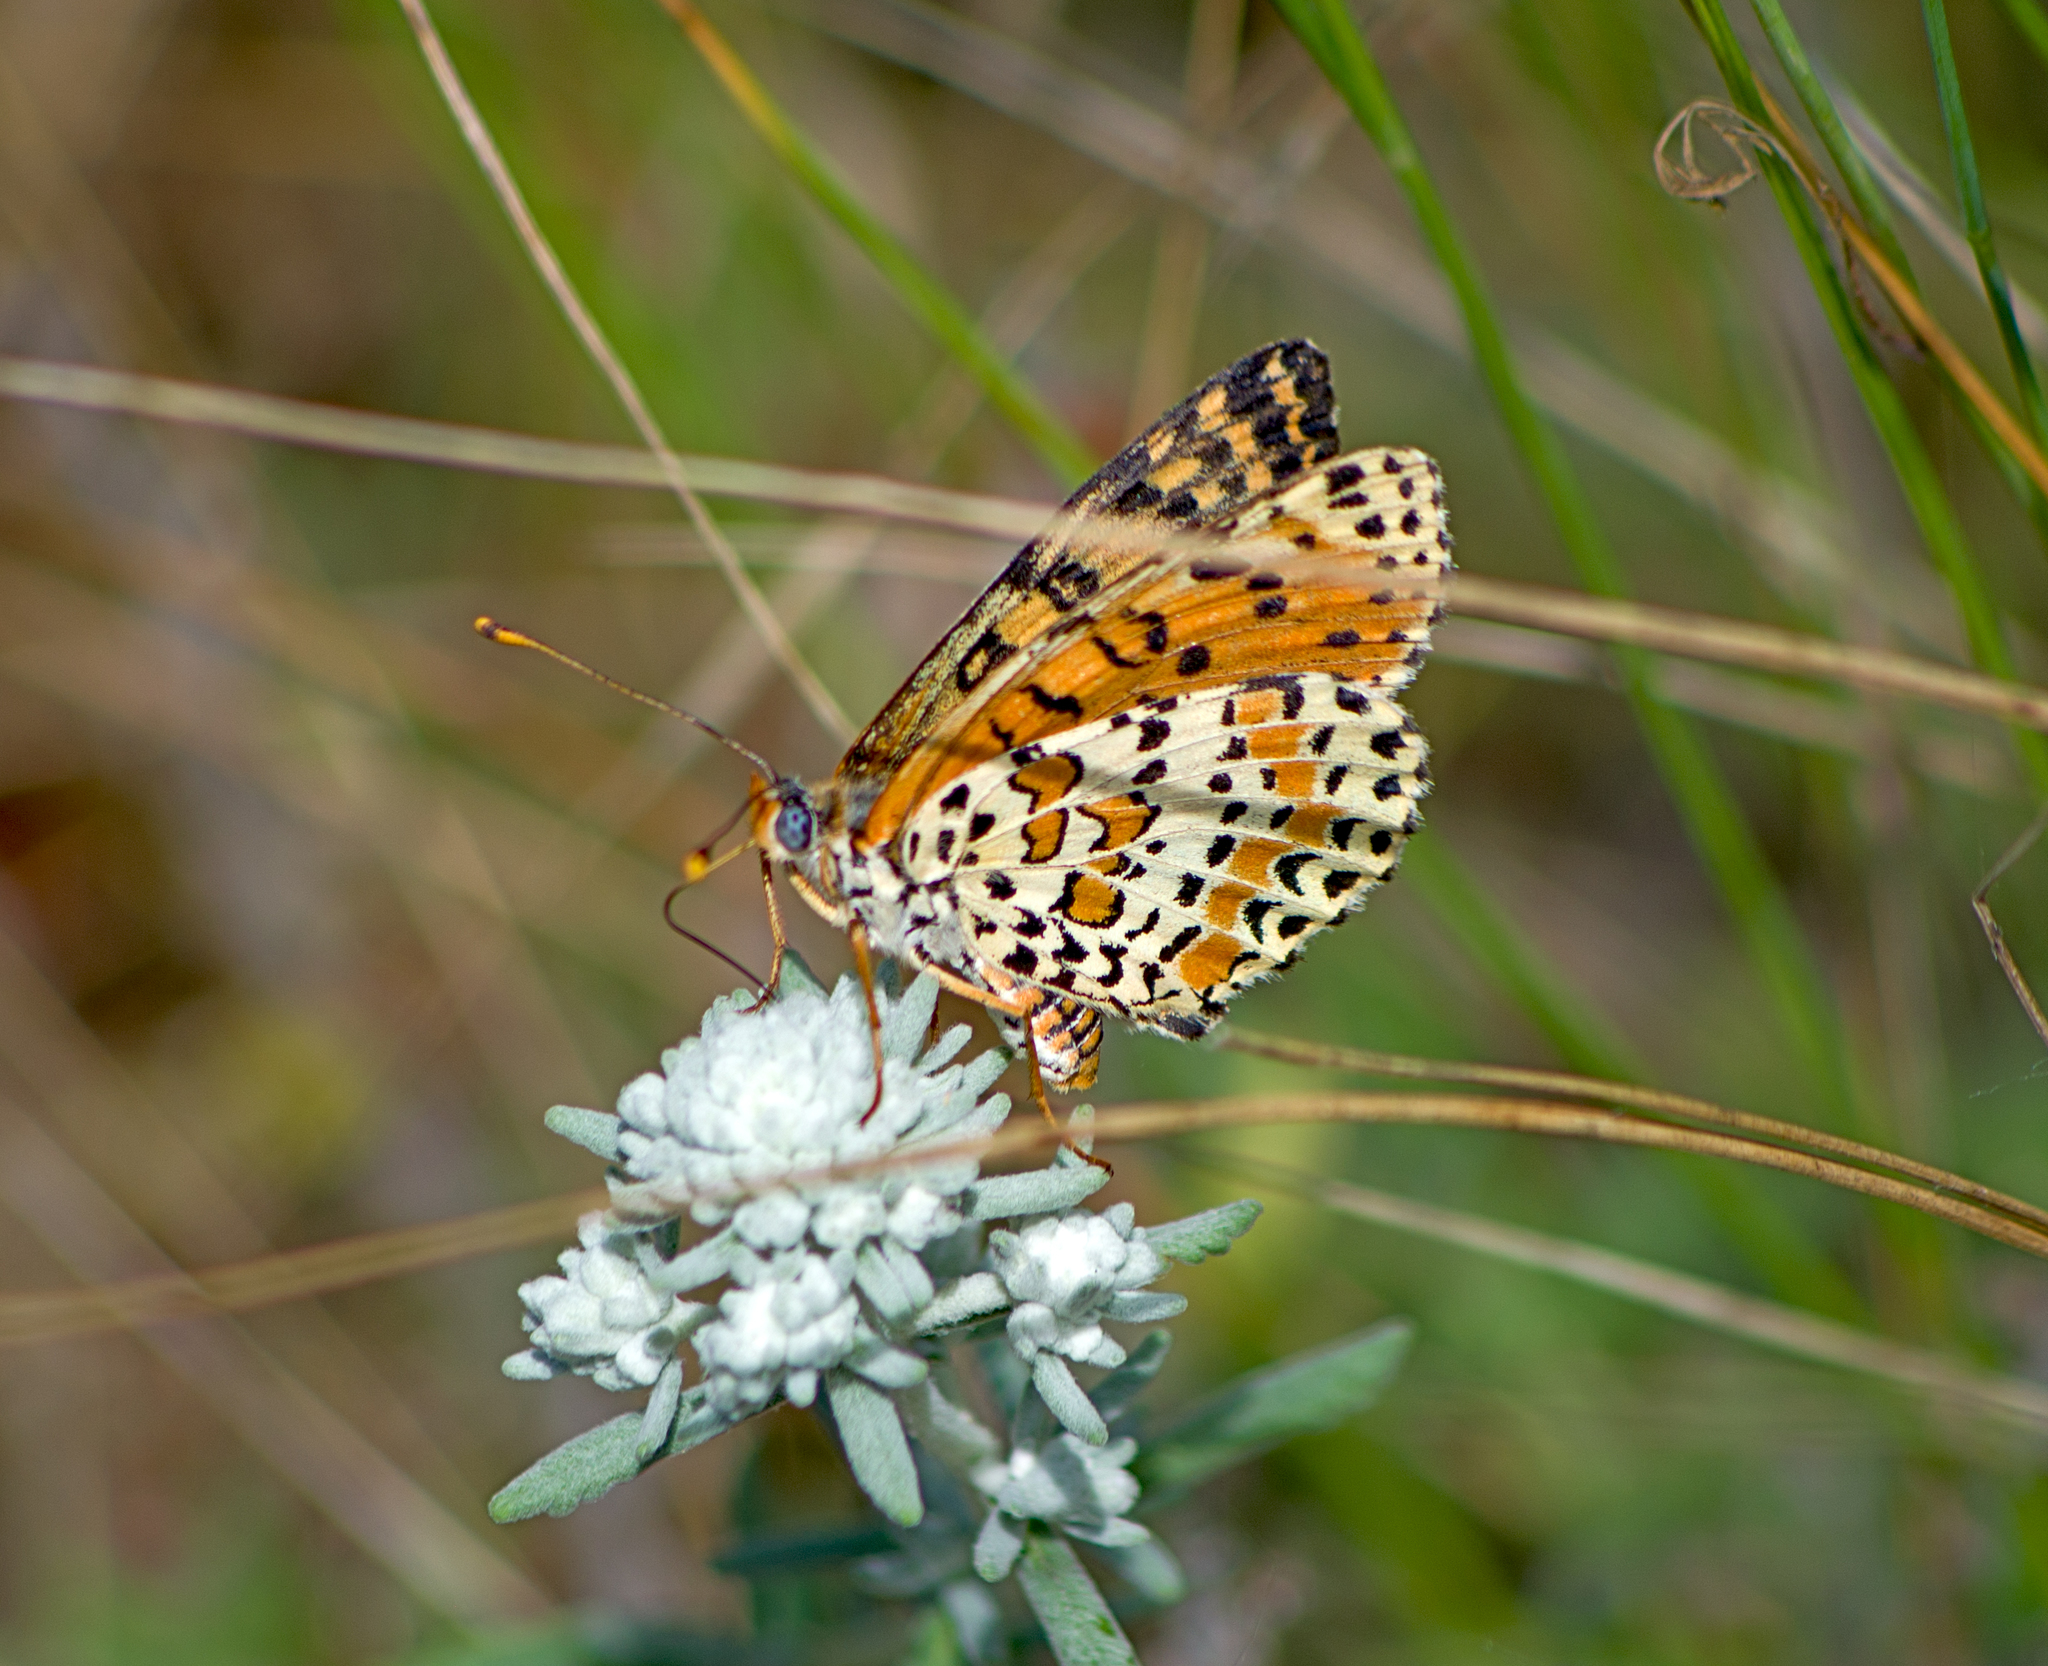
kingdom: Animalia
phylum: Arthropoda
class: Insecta
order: Lepidoptera
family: Nymphalidae
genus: Melitaea
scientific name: Melitaea didyma
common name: Spotted fritillary
